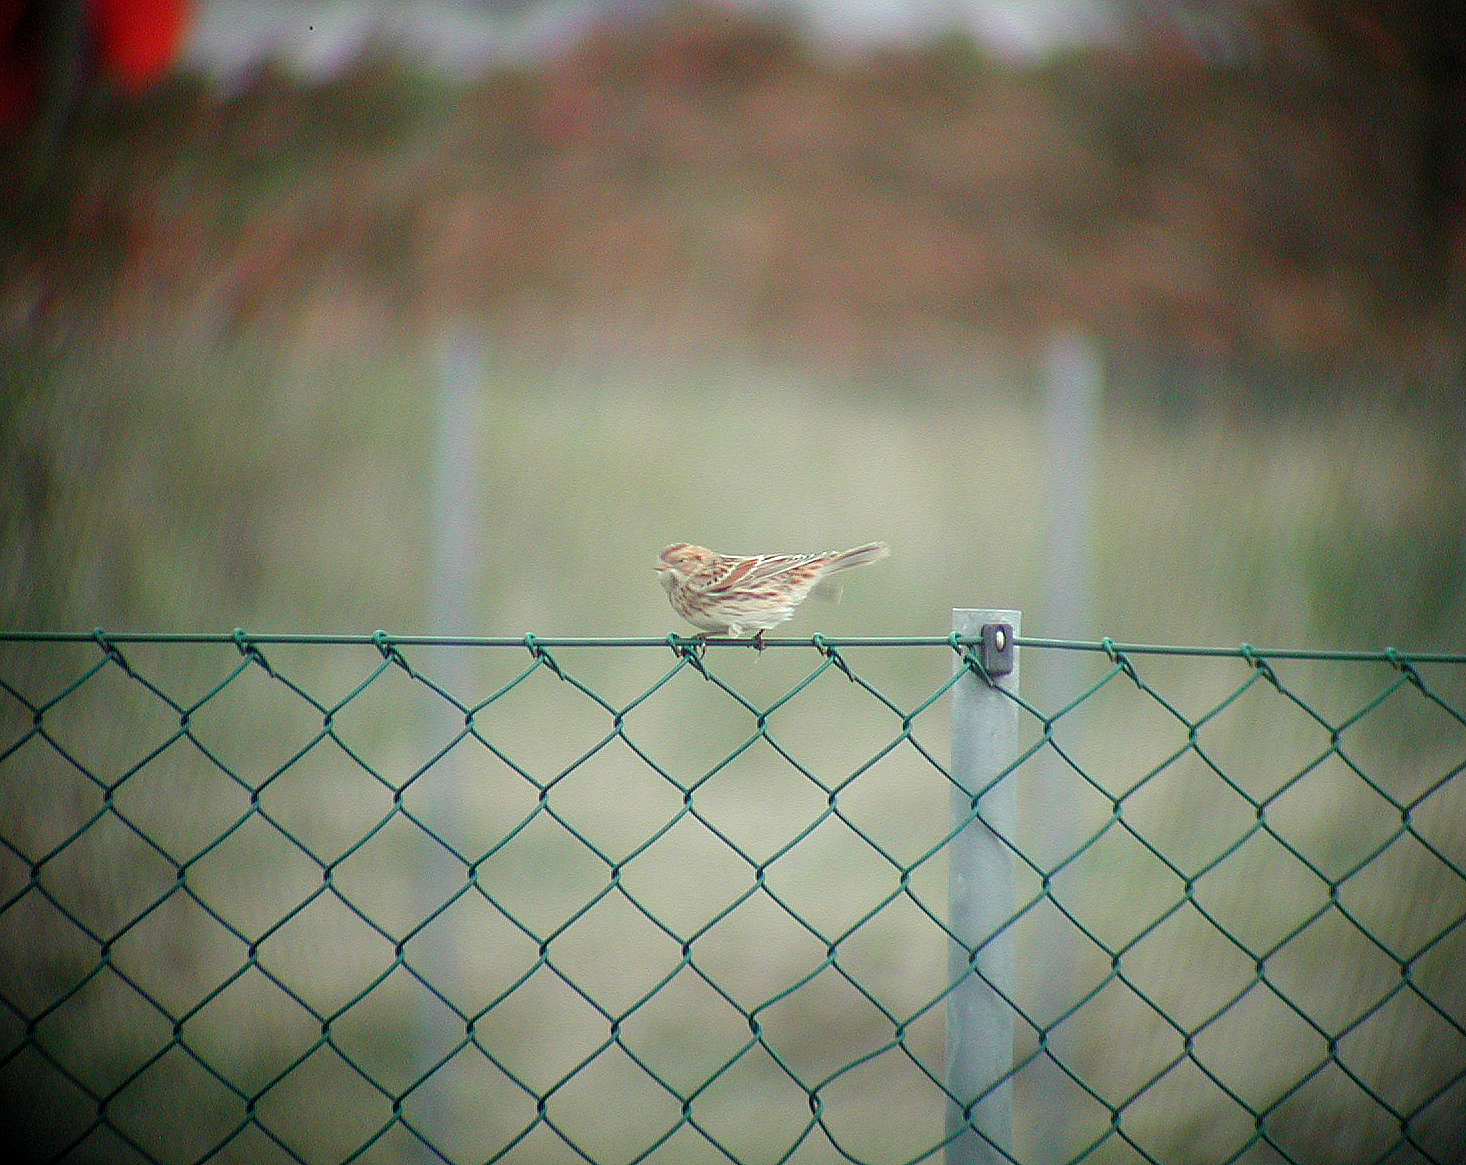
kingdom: Animalia
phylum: Chordata
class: Aves
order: Passeriformes
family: Calcariidae
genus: Calcarius
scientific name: Calcarius lapponicus
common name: Lapland longspur
